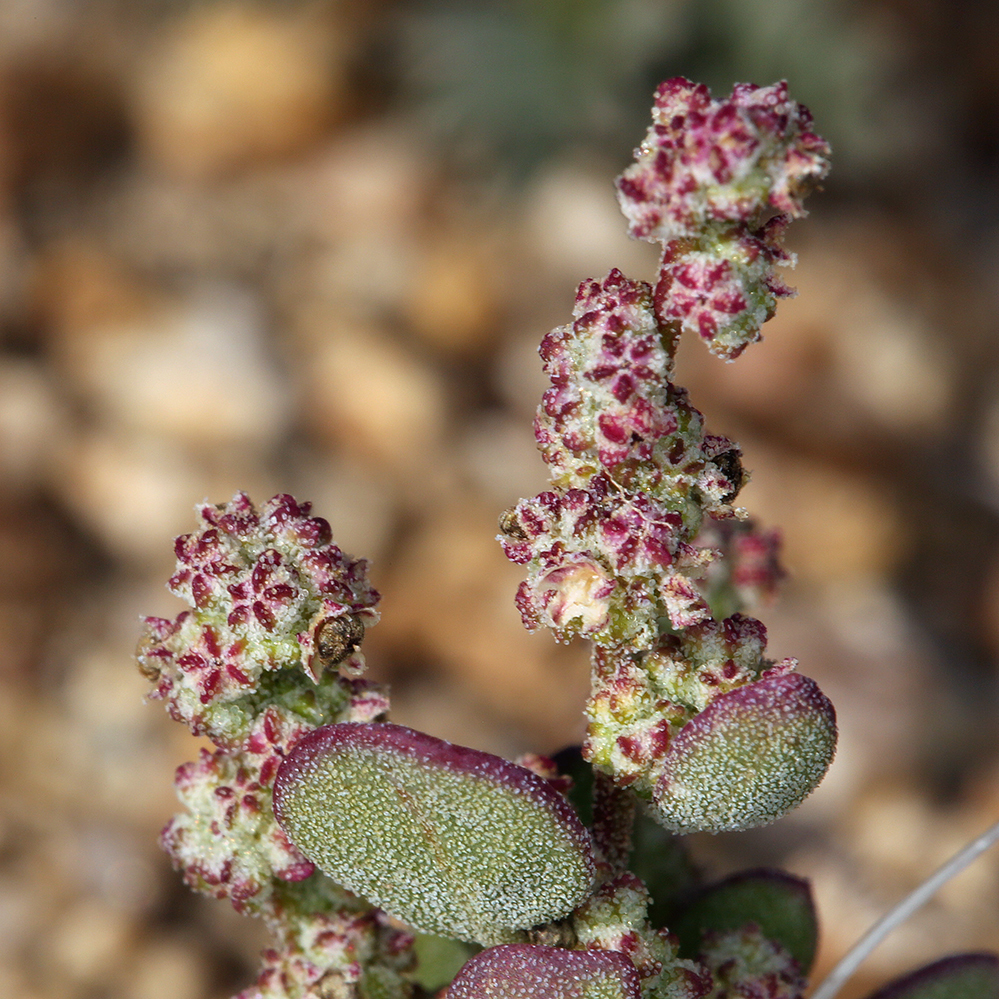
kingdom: Plantae
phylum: Tracheophyta
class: Magnoliopsida
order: Caryophyllales
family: Amaranthaceae
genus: Chenopodium
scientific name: Chenopodium atrovirens
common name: Dark goosefoot
